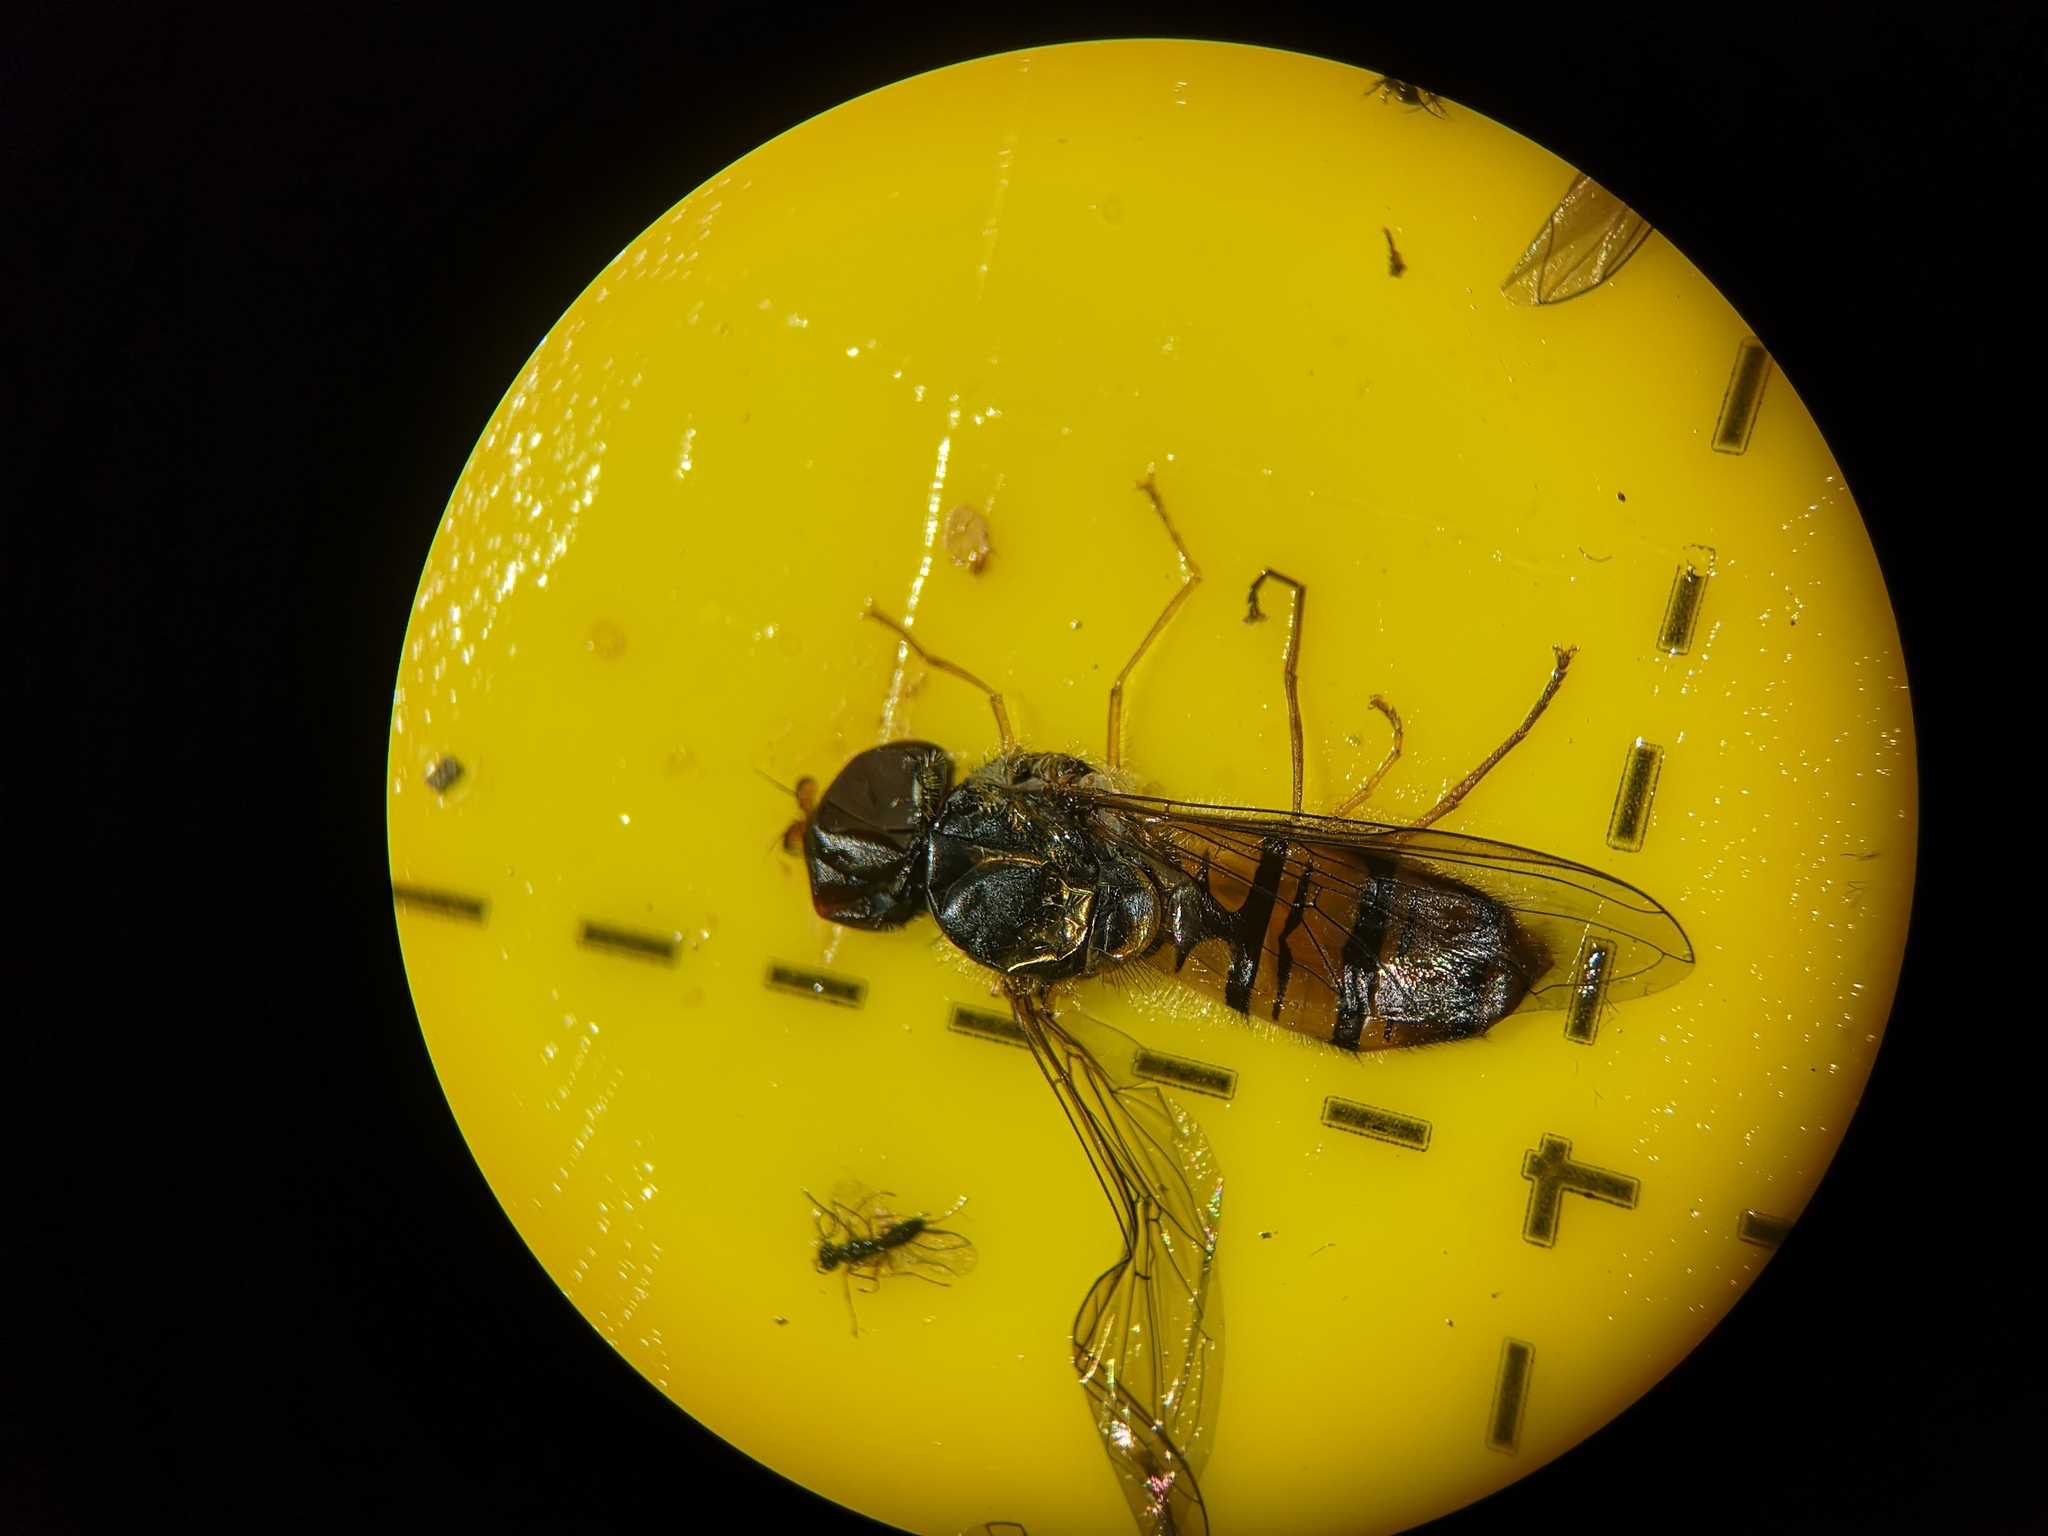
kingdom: Animalia
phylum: Arthropoda
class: Insecta
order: Diptera
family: Syrphidae
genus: Episyrphus
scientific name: Episyrphus balteatus
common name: Marmalade hoverfly
